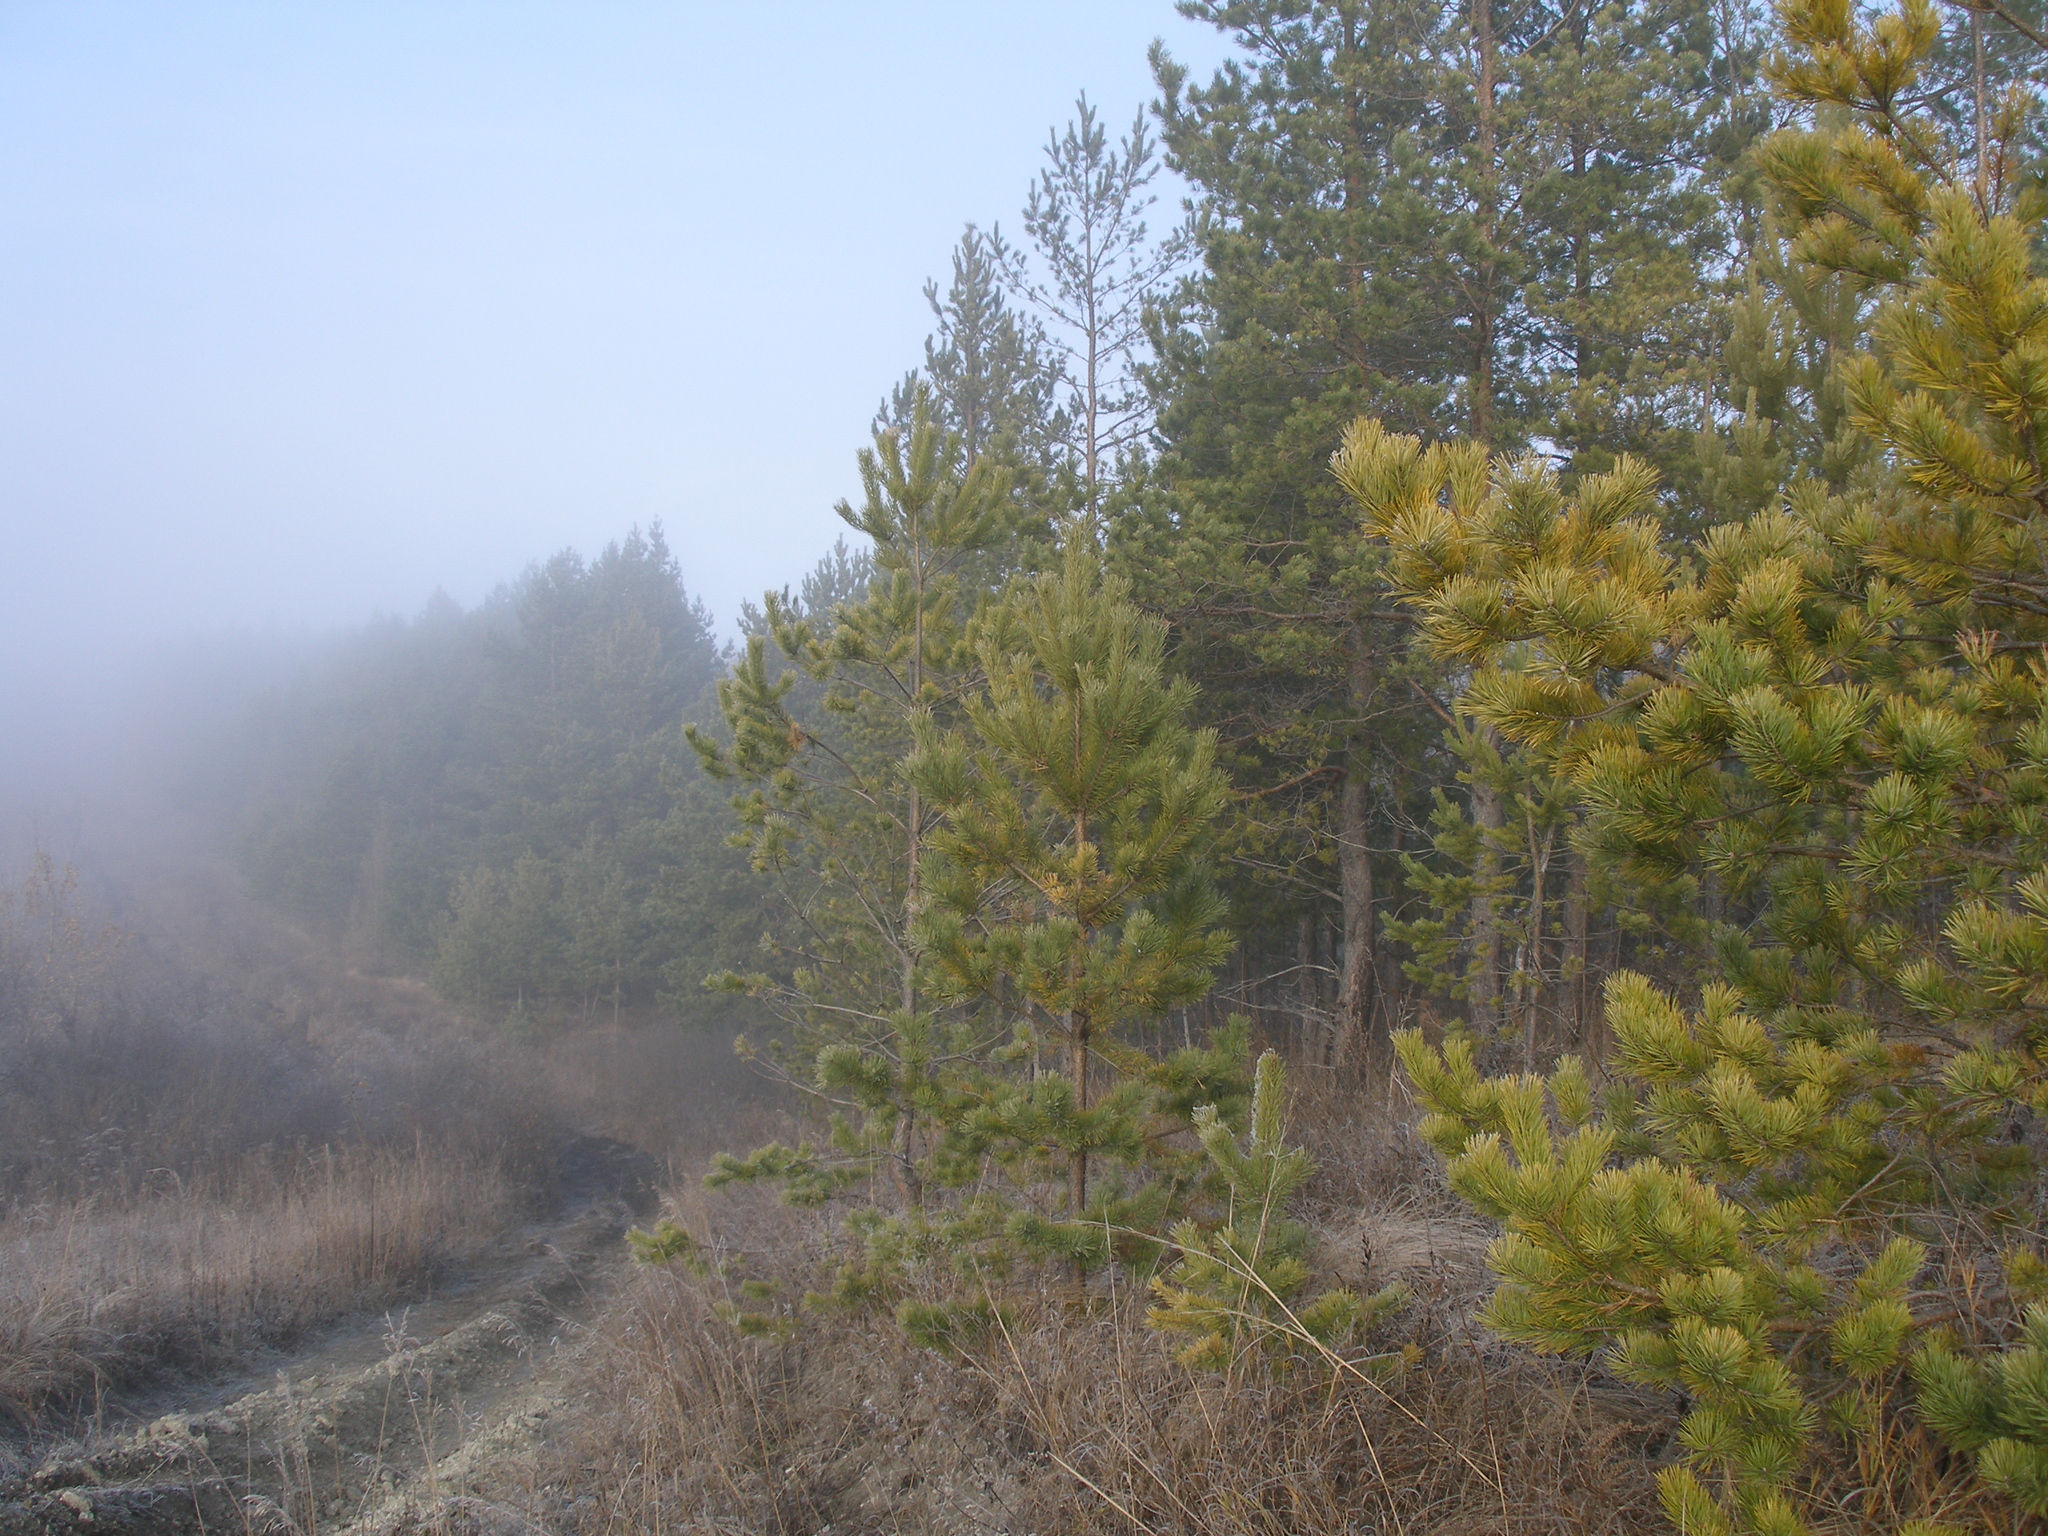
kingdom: Plantae
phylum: Tracheophyta
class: Pinopsida
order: Pinales
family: Pinaceae
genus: Pinus
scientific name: Pinus sylvestris
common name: Scots pine
